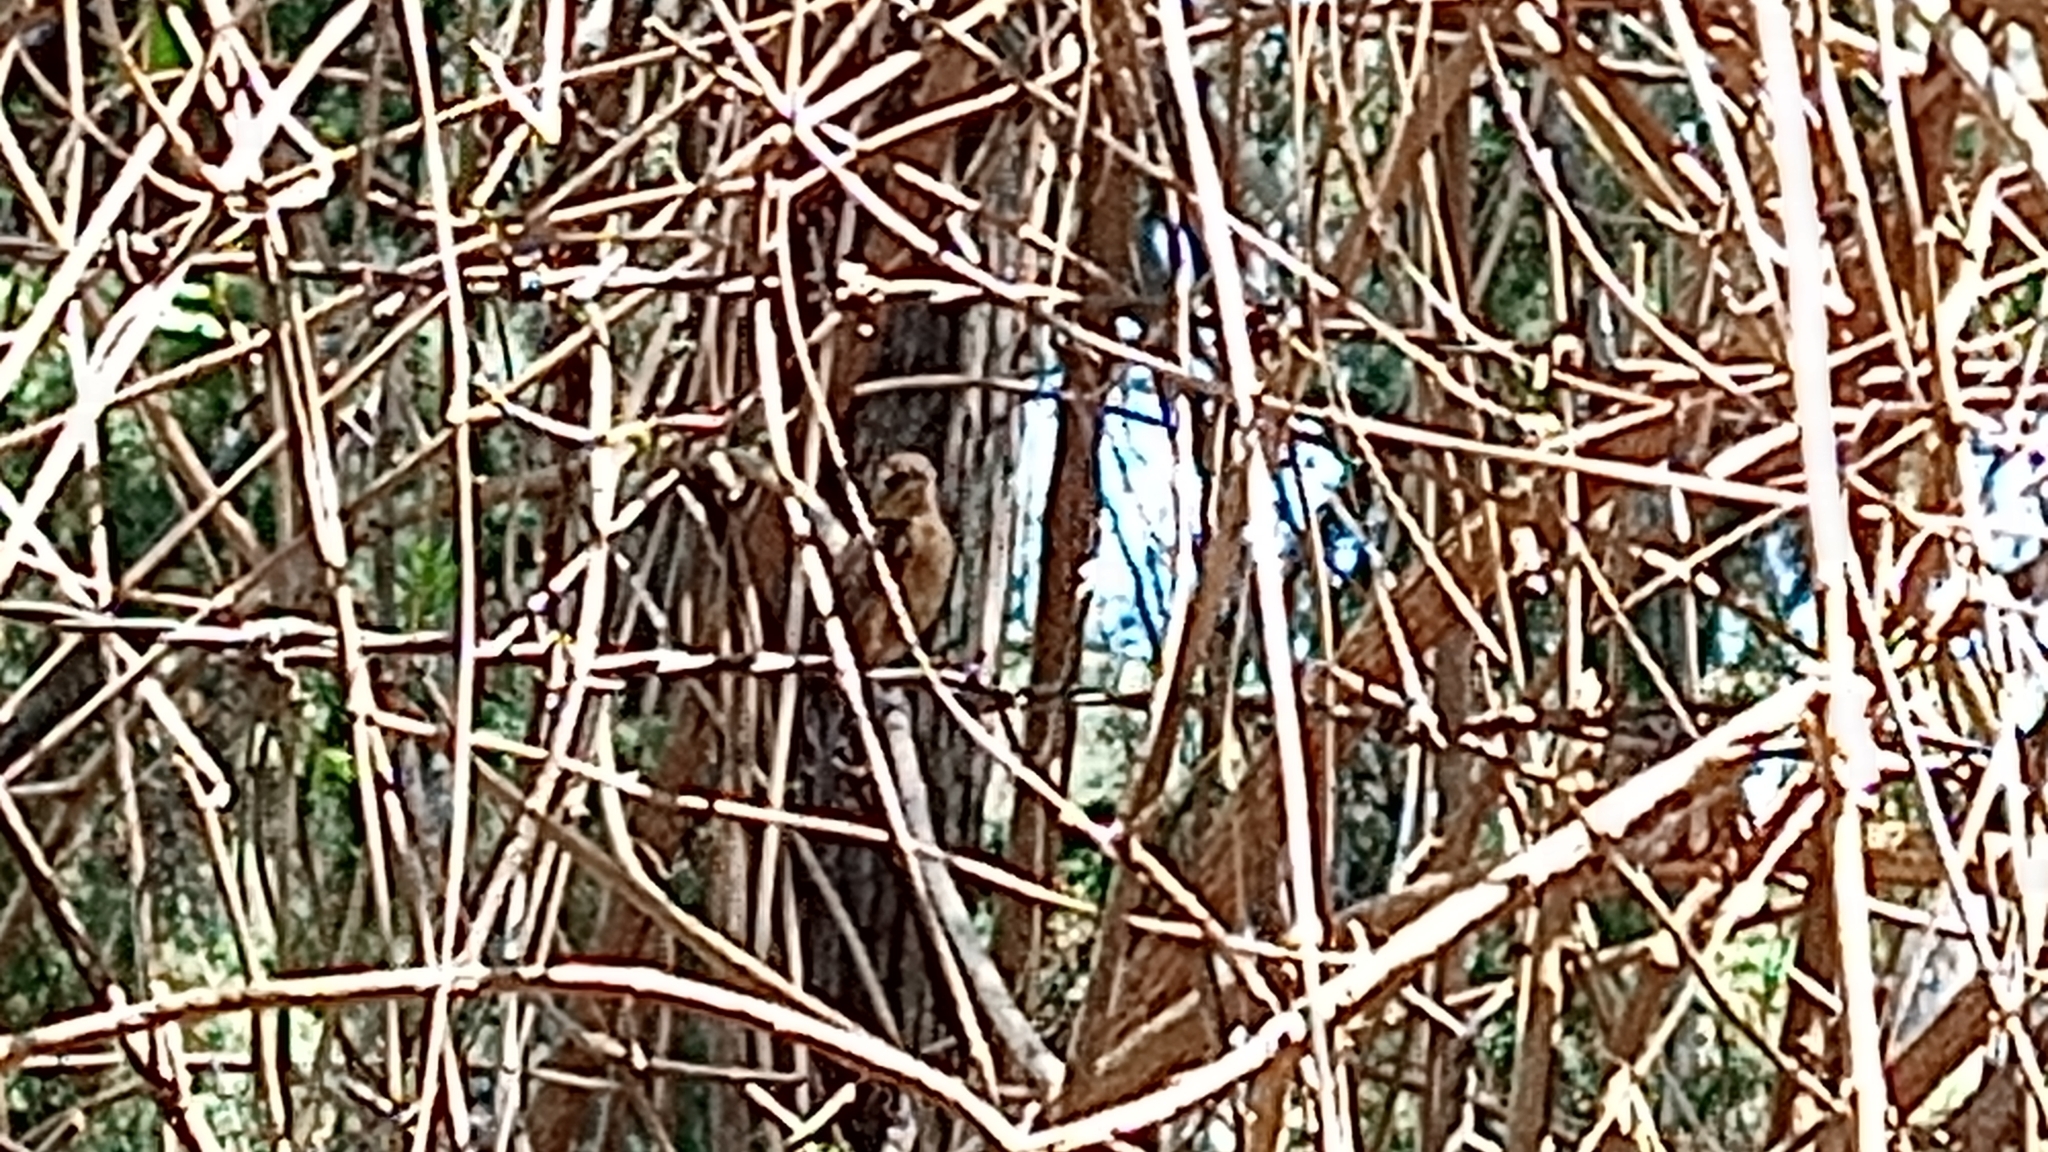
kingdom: Animalia
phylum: Chordata
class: Aves
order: Passeriformes
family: Thraupidae
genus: Sporophila
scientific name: Sporophila torqueola
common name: White-collared seedeater
